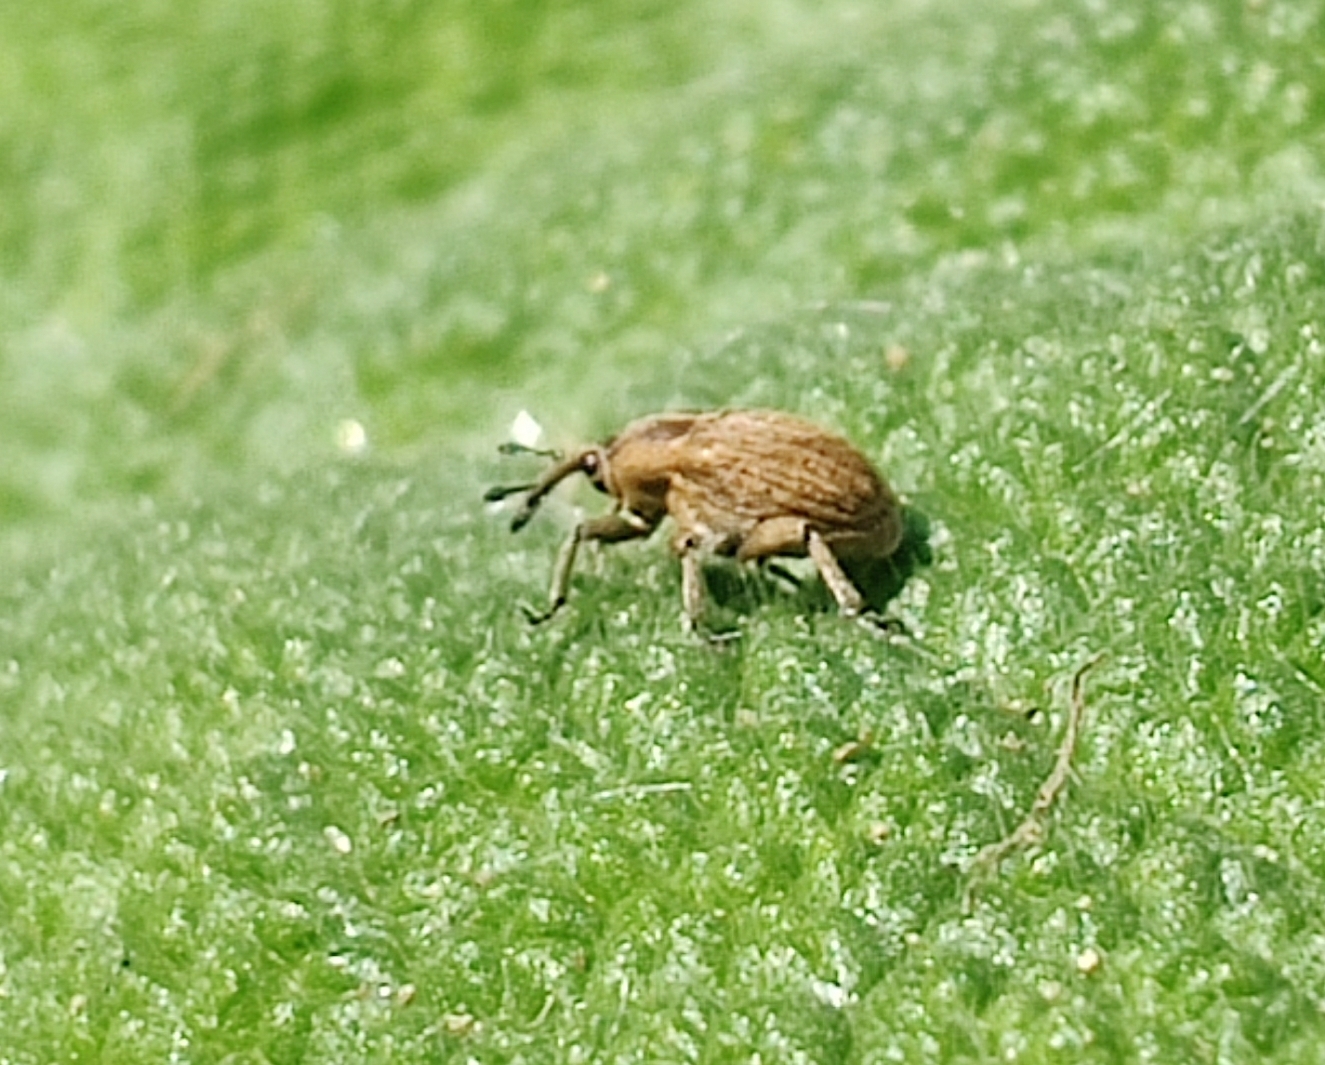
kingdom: Animalia
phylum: Arthropoda
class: Insecta
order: Coleoptera
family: Curculionidae
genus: Sibinia
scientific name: Sibinia pellucens
